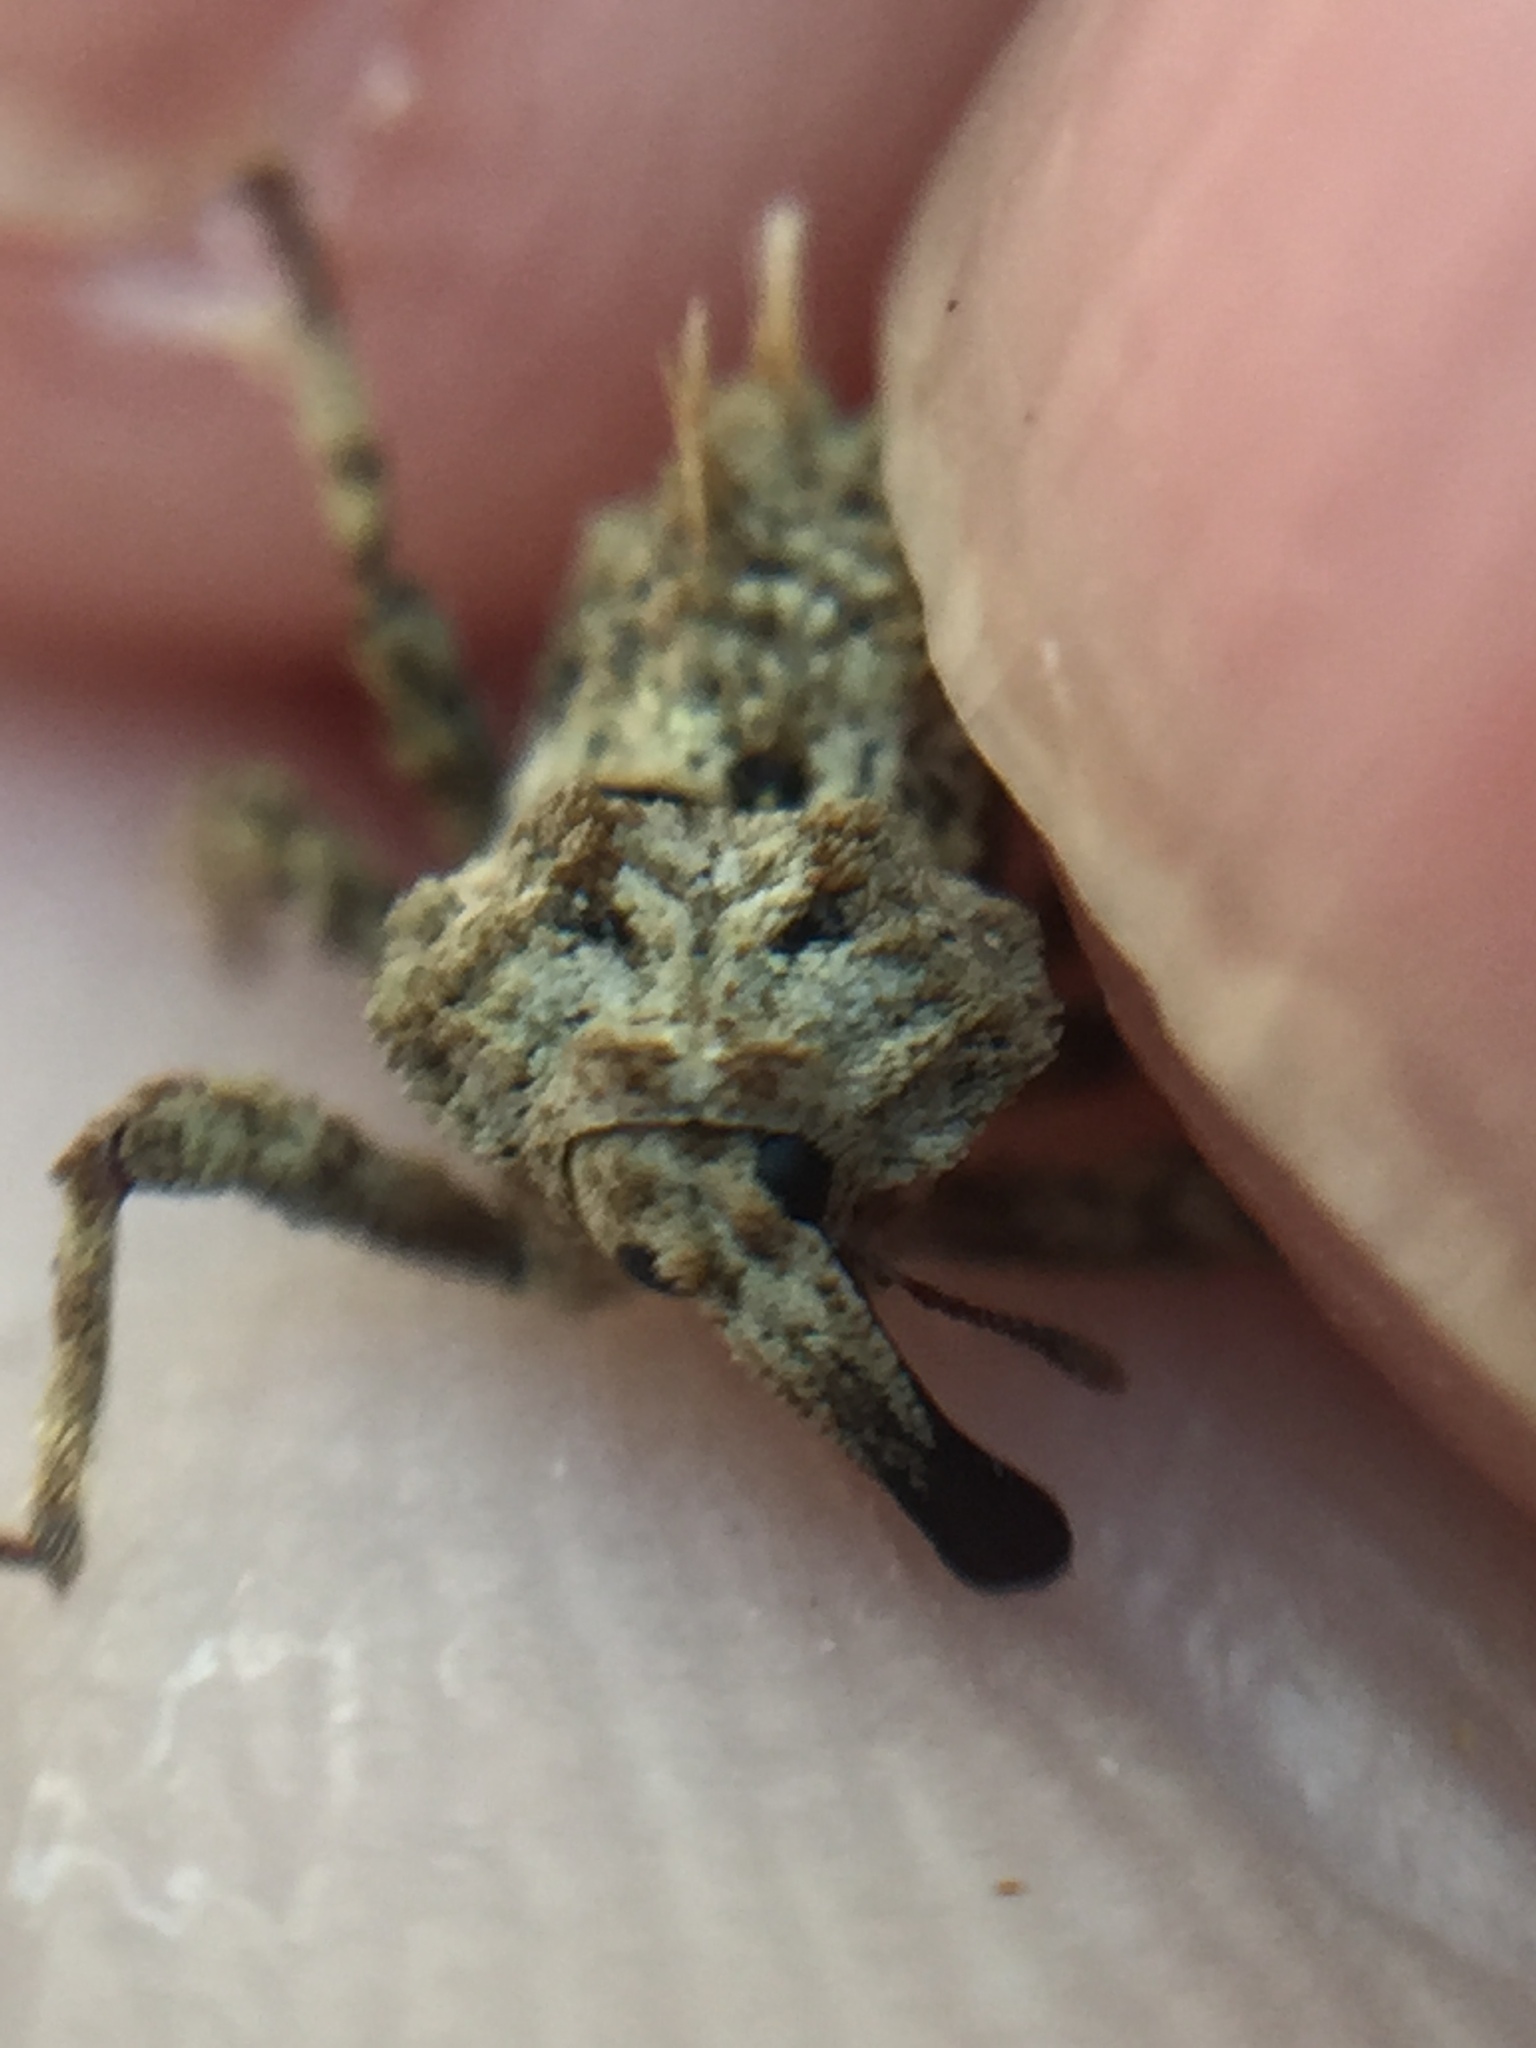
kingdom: Animalia
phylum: Arthropoda
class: Insecta
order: Coleoptera
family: Curculionidae
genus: Indecentia
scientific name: Indecentia nubila
